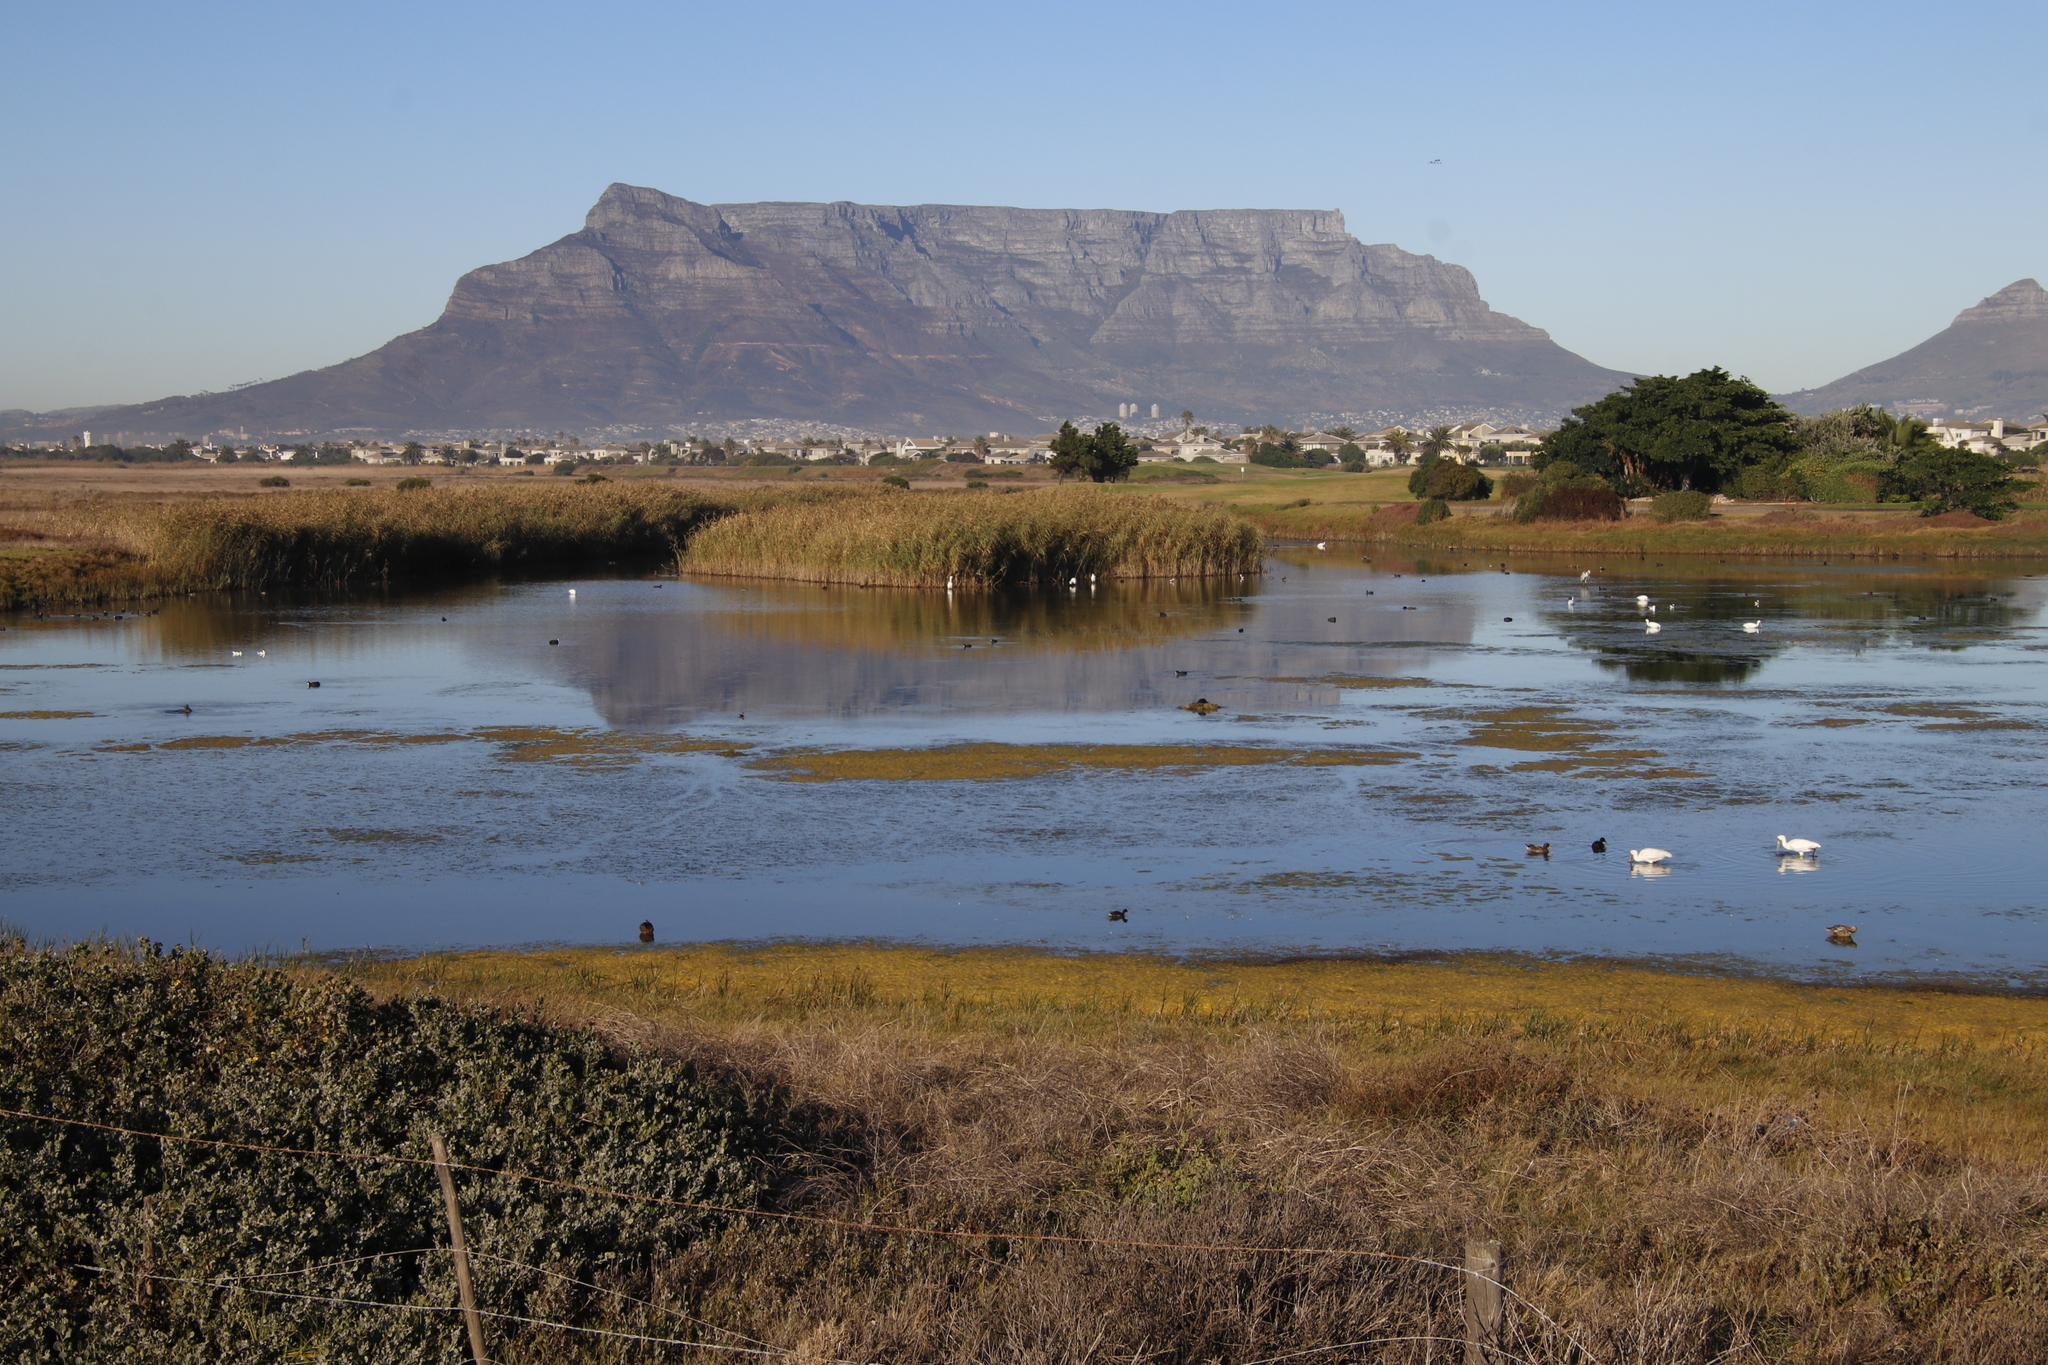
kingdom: Plantae
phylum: Tracheophyta
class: Liliopsida
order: Poales
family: Poaceae
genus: Phragmites
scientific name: Phragmites australis
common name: Common reed
